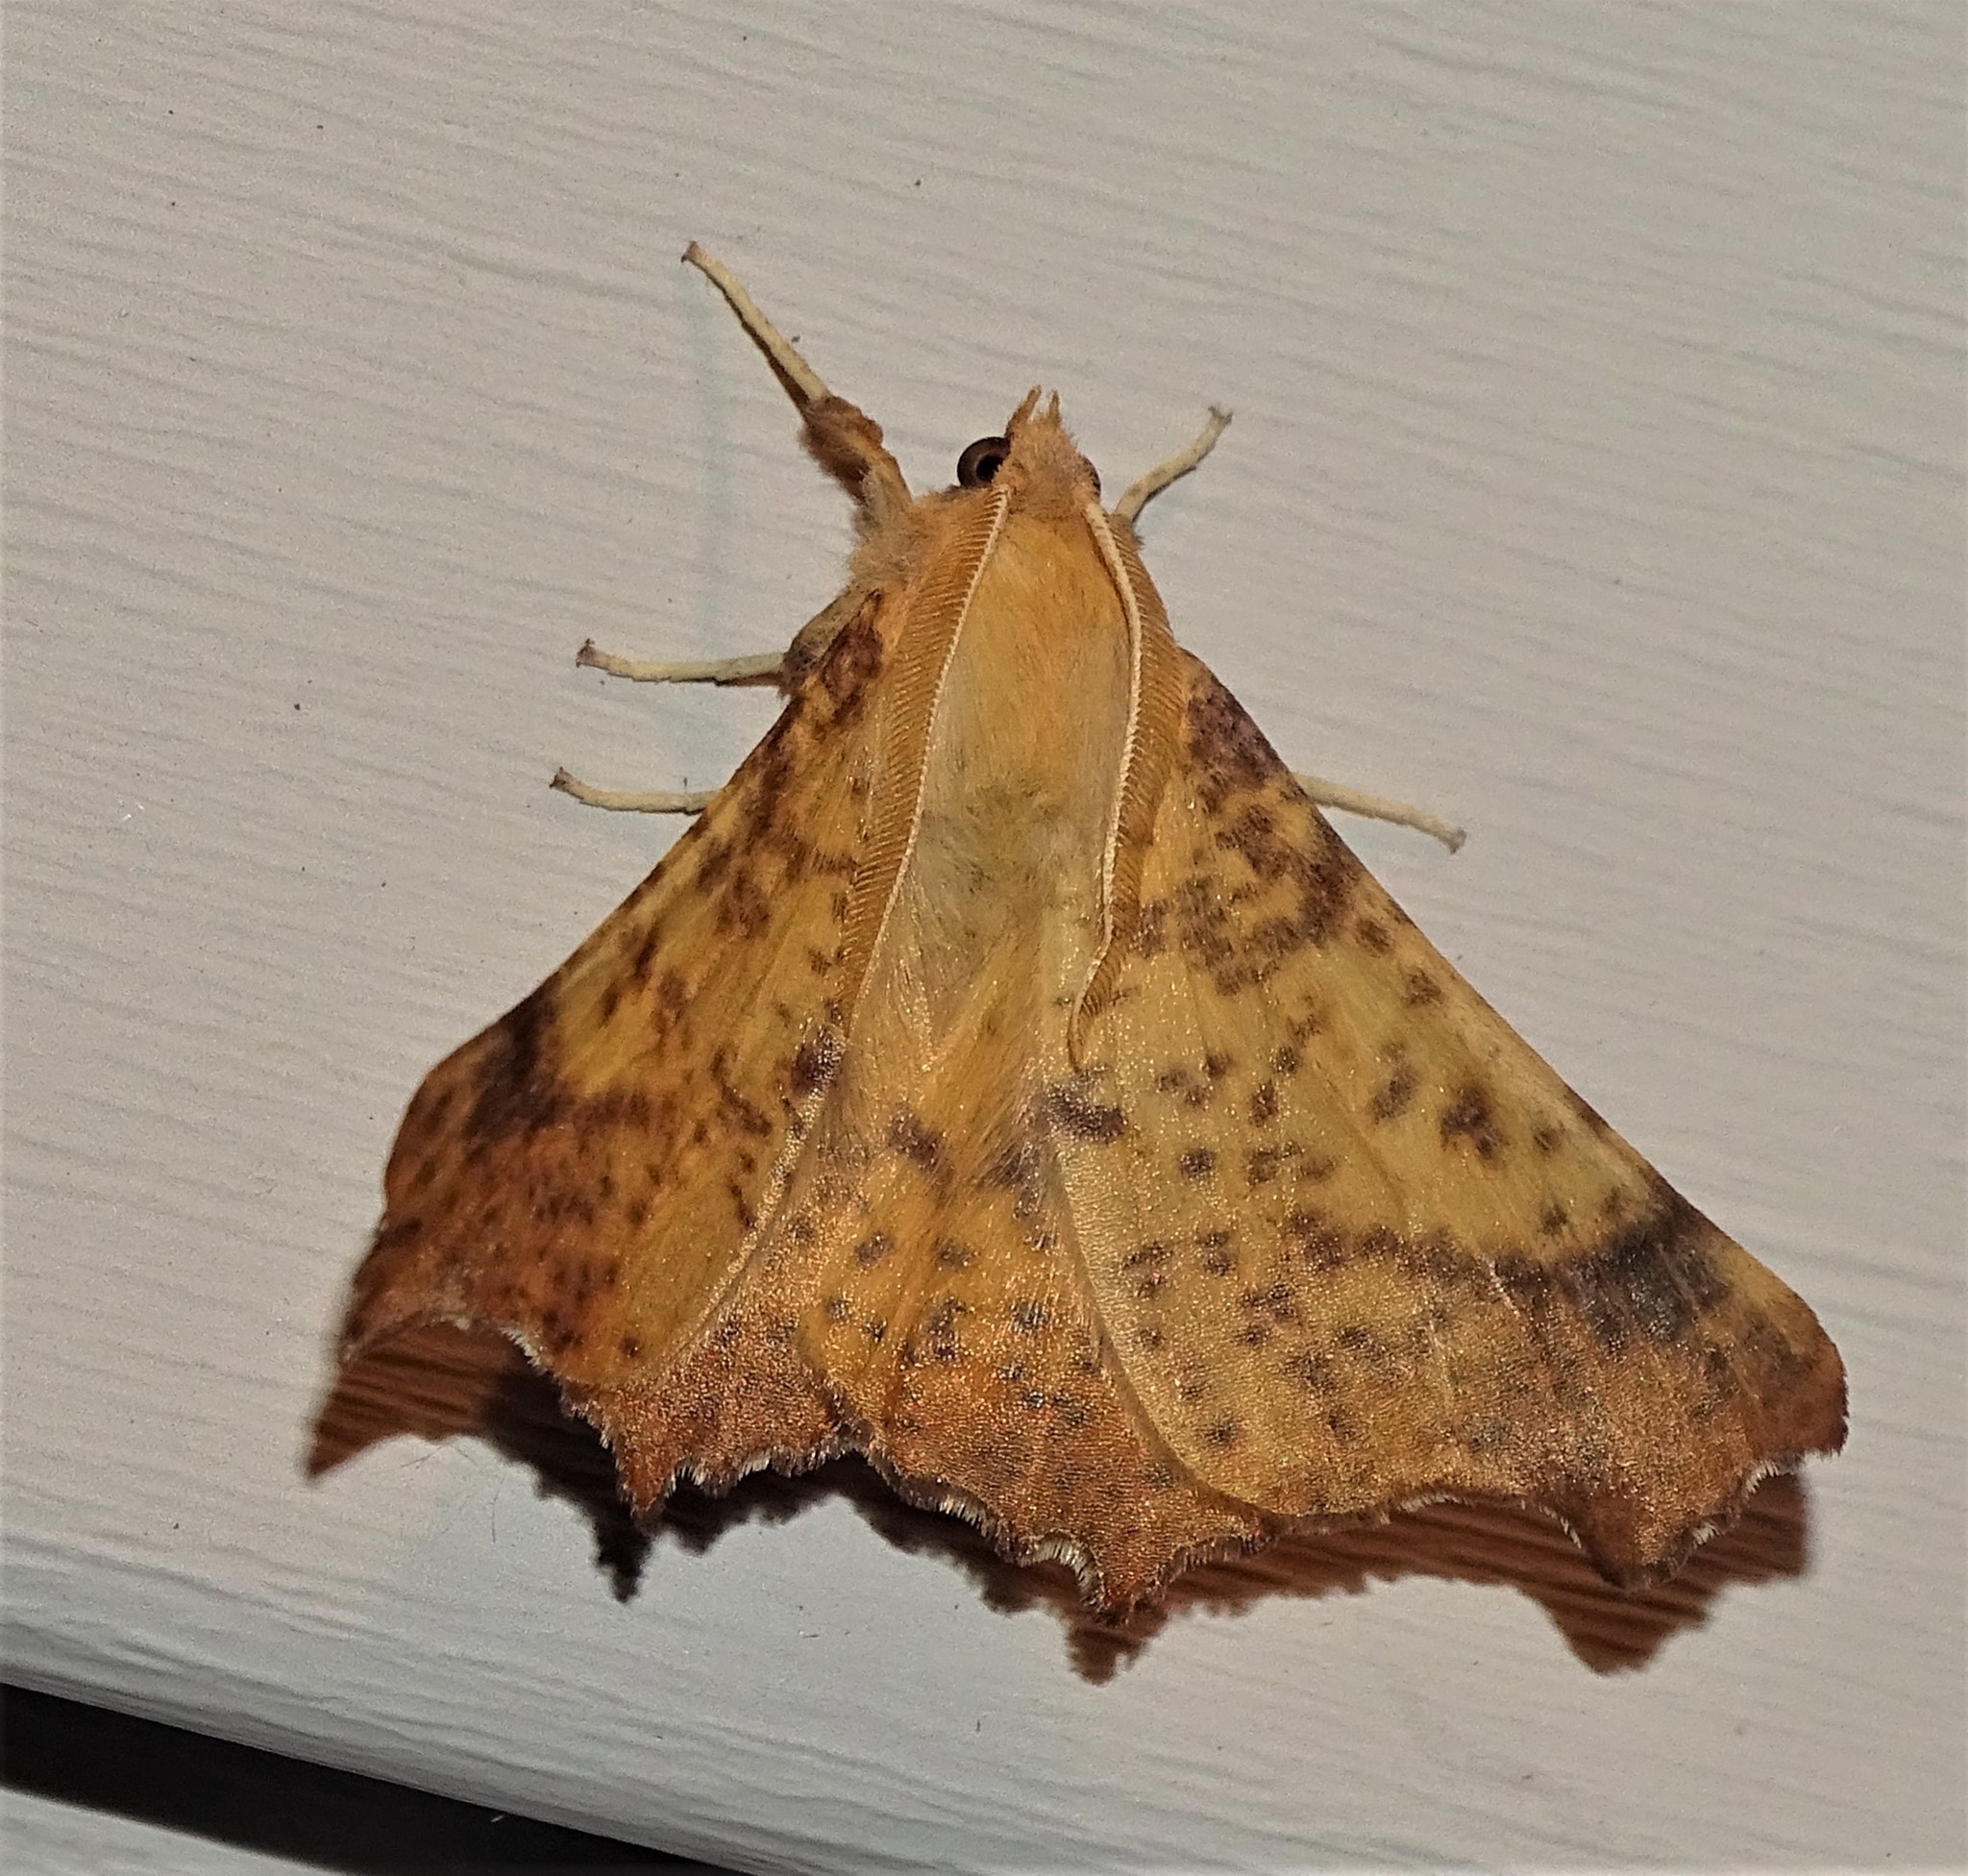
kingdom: Animalia
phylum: Arthropoda
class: Insecta
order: Lepidoptera
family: Geometridae
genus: Ennomos
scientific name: Ennomos magnaria
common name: Maple spanworm
